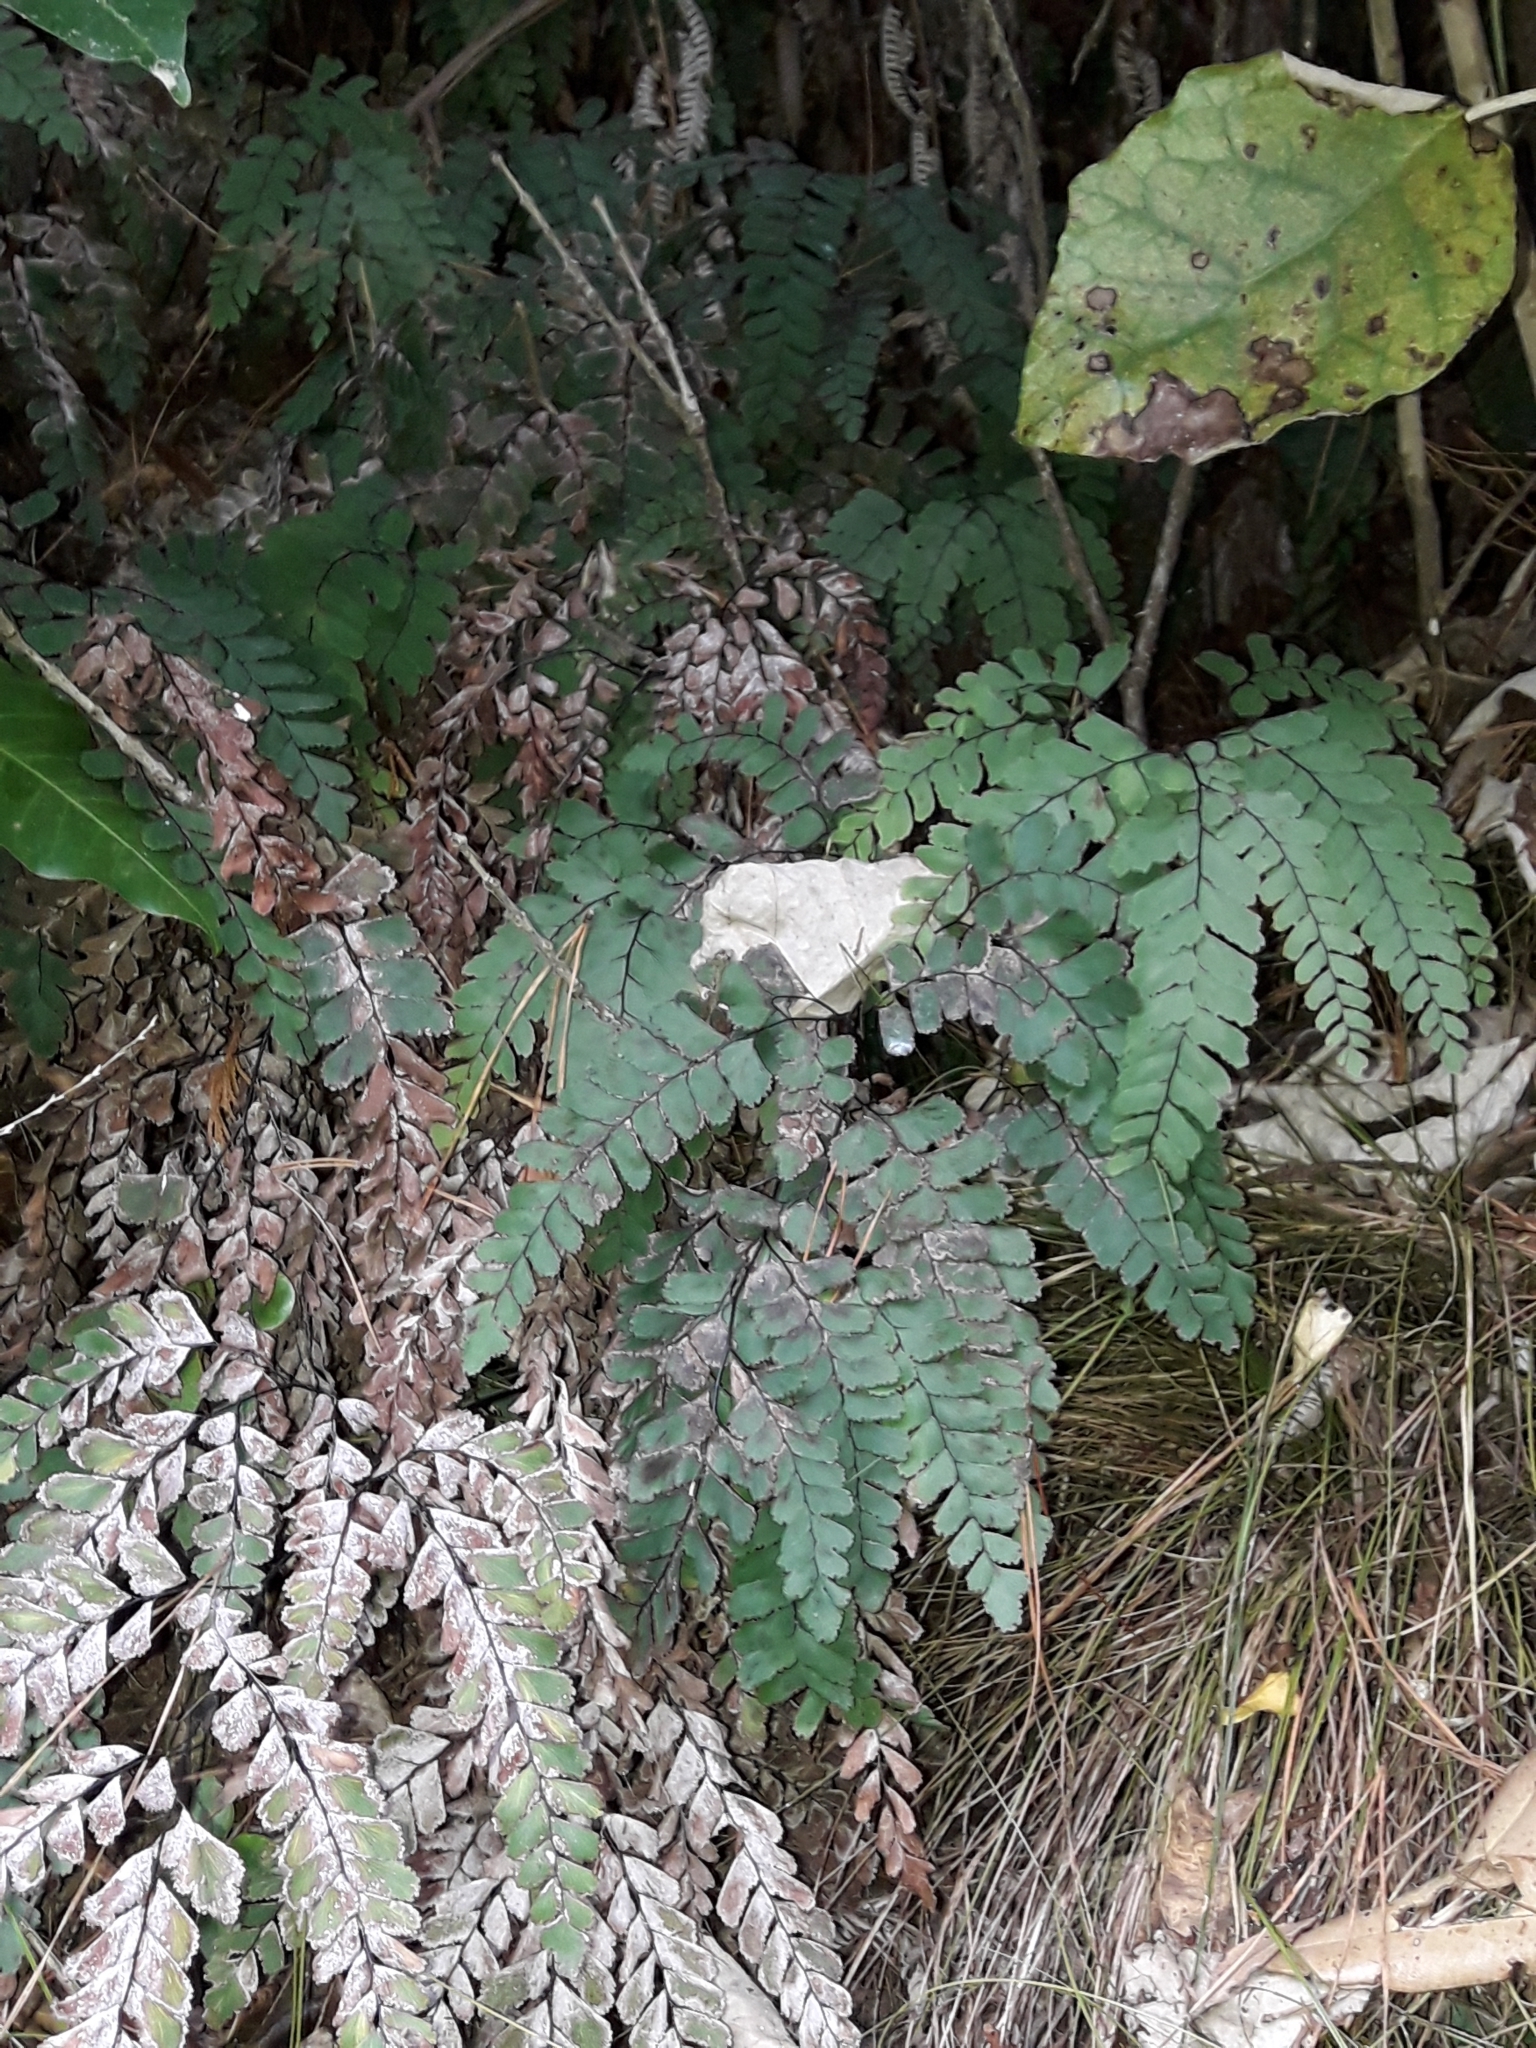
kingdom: Plantae
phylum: Tracheophyta
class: Polypodiopsida
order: Polypodiales
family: Pteridaceae
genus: Adiantum
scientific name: Adiantum cunninghamii
